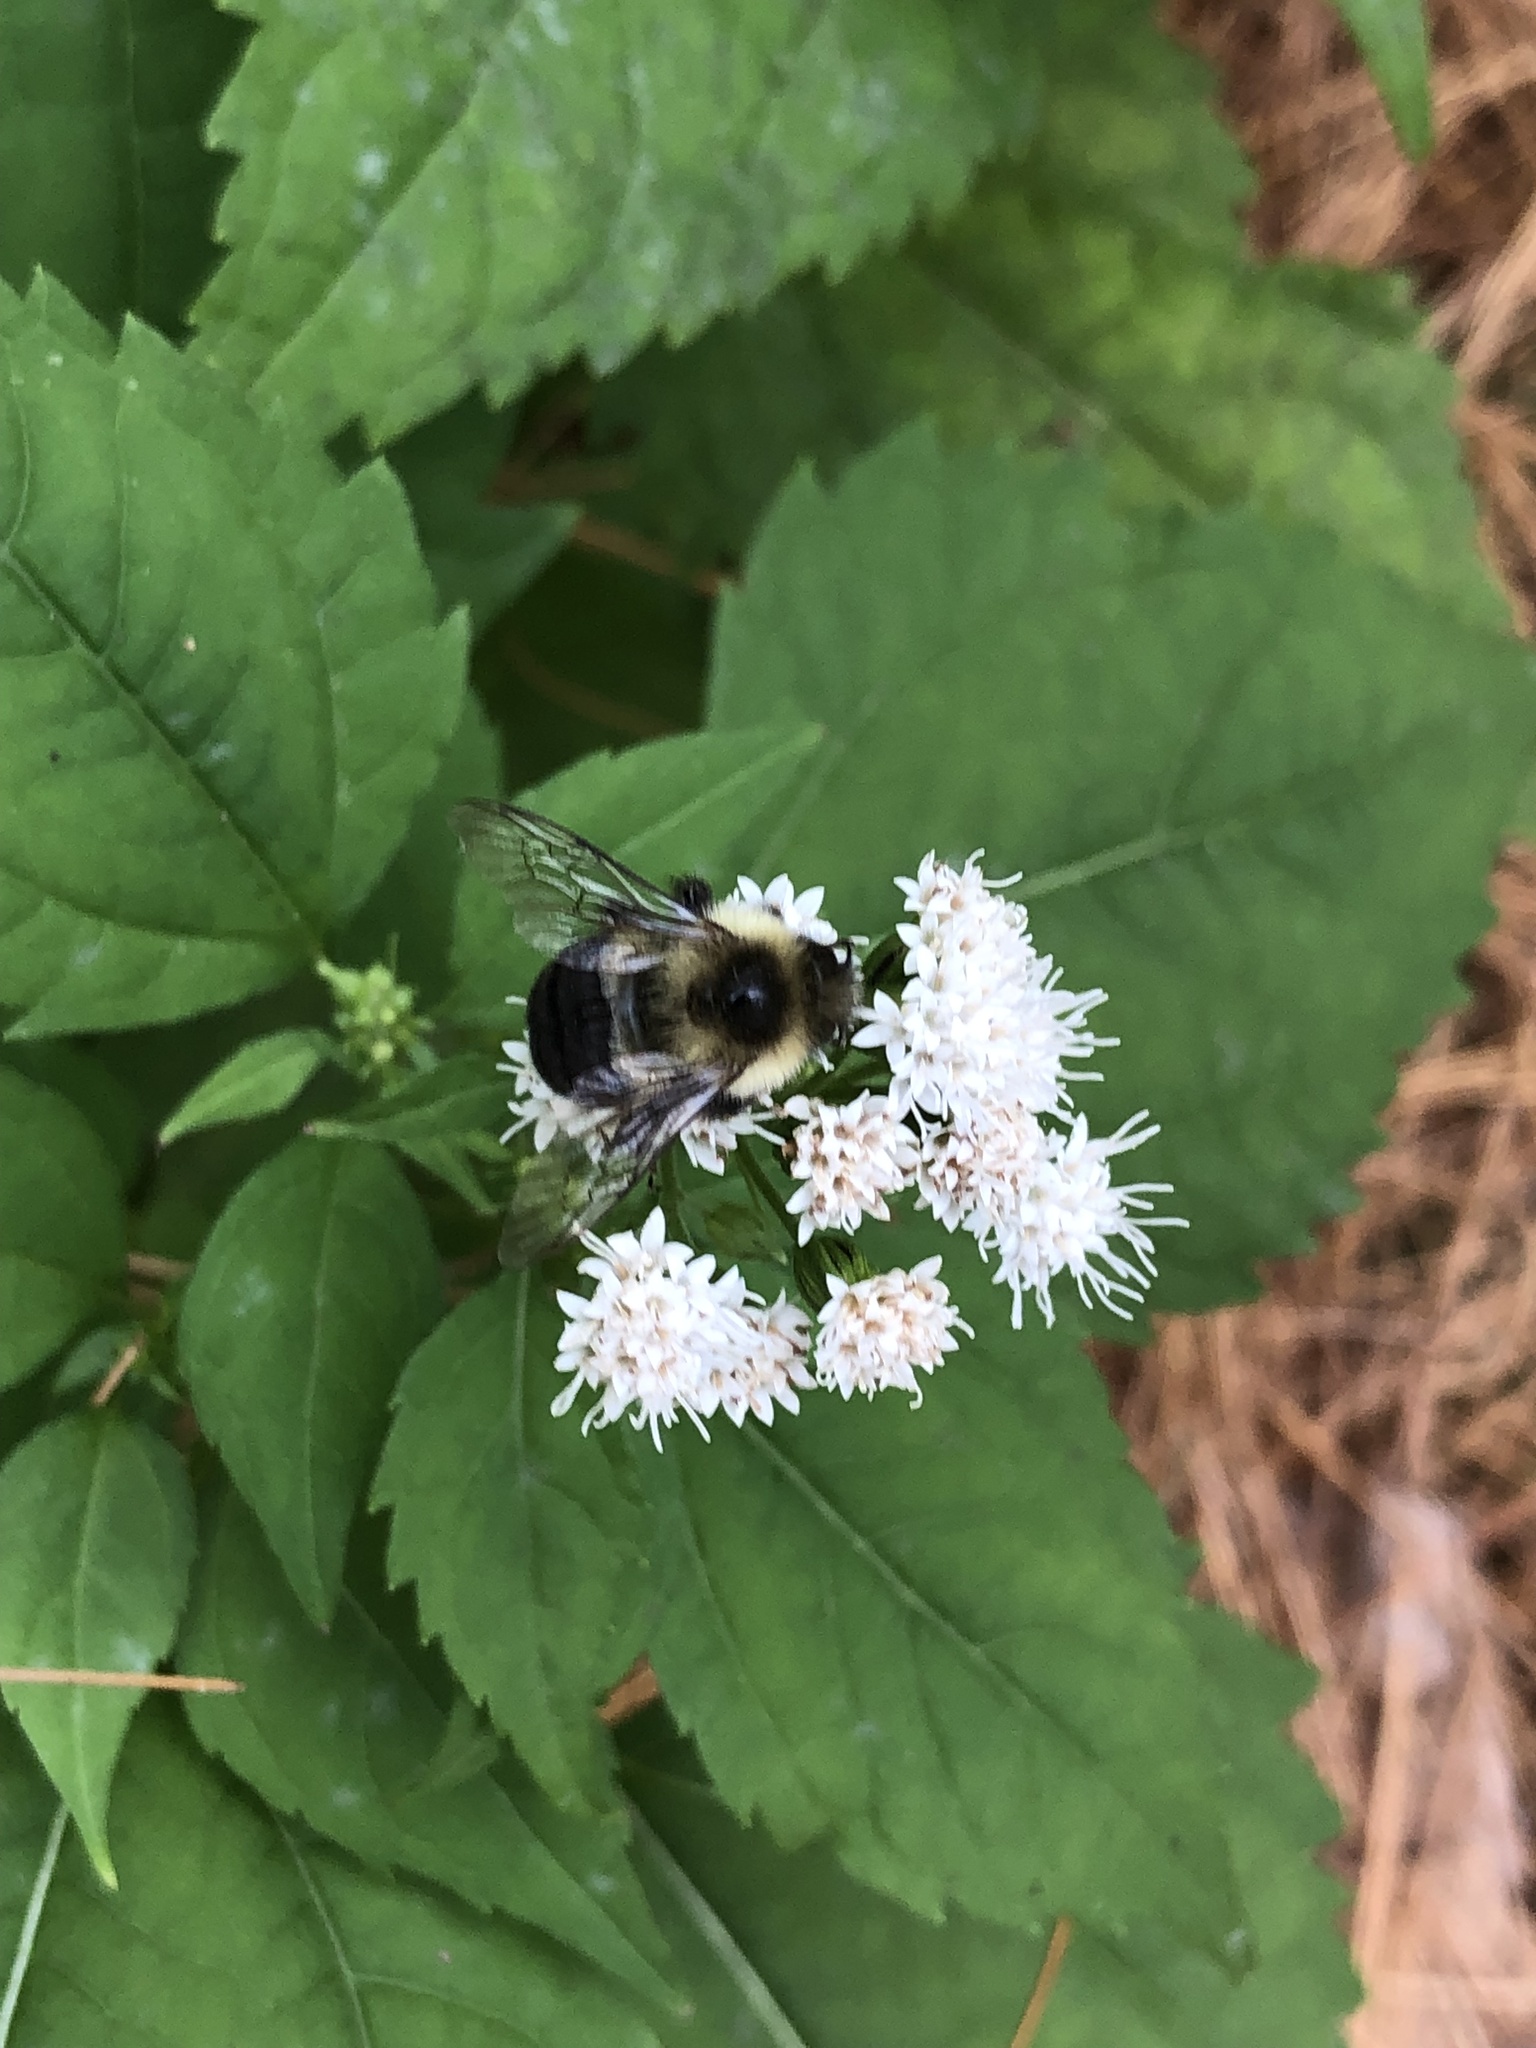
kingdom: Animalia
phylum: Arthropoda
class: Insecta
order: Hymenoptera
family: Apidae
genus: Bombus
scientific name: Bombus impatiens
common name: Common eastern bumble bee
